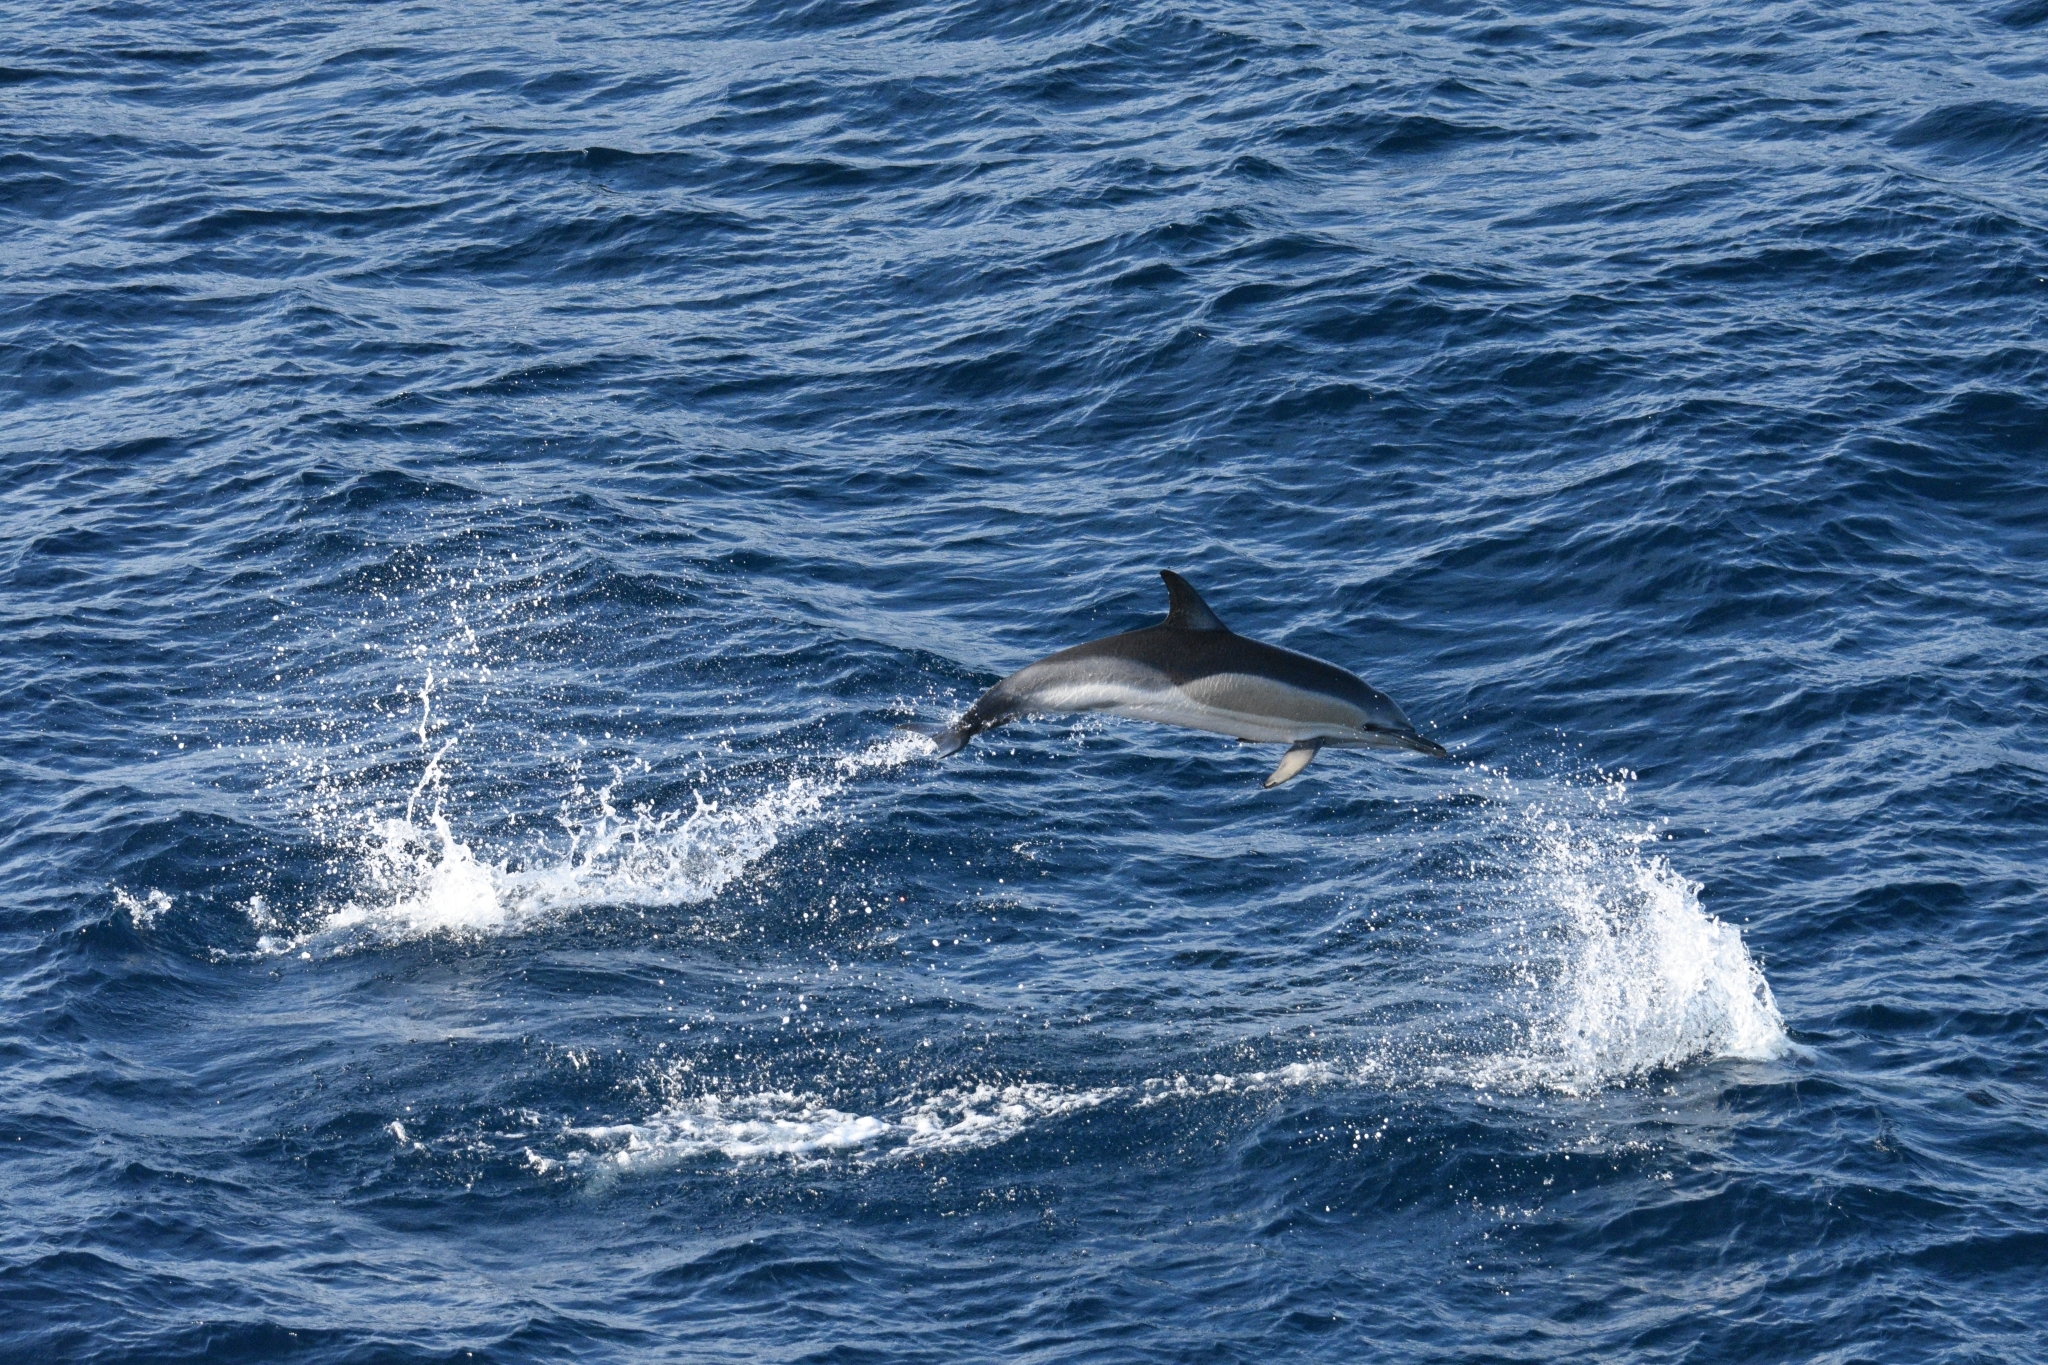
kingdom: Animalia
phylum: Chordata
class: Mammalia
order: Cetacea
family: Delphinidae
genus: Delphinus
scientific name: Delphinus delphis
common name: Common dolphin
